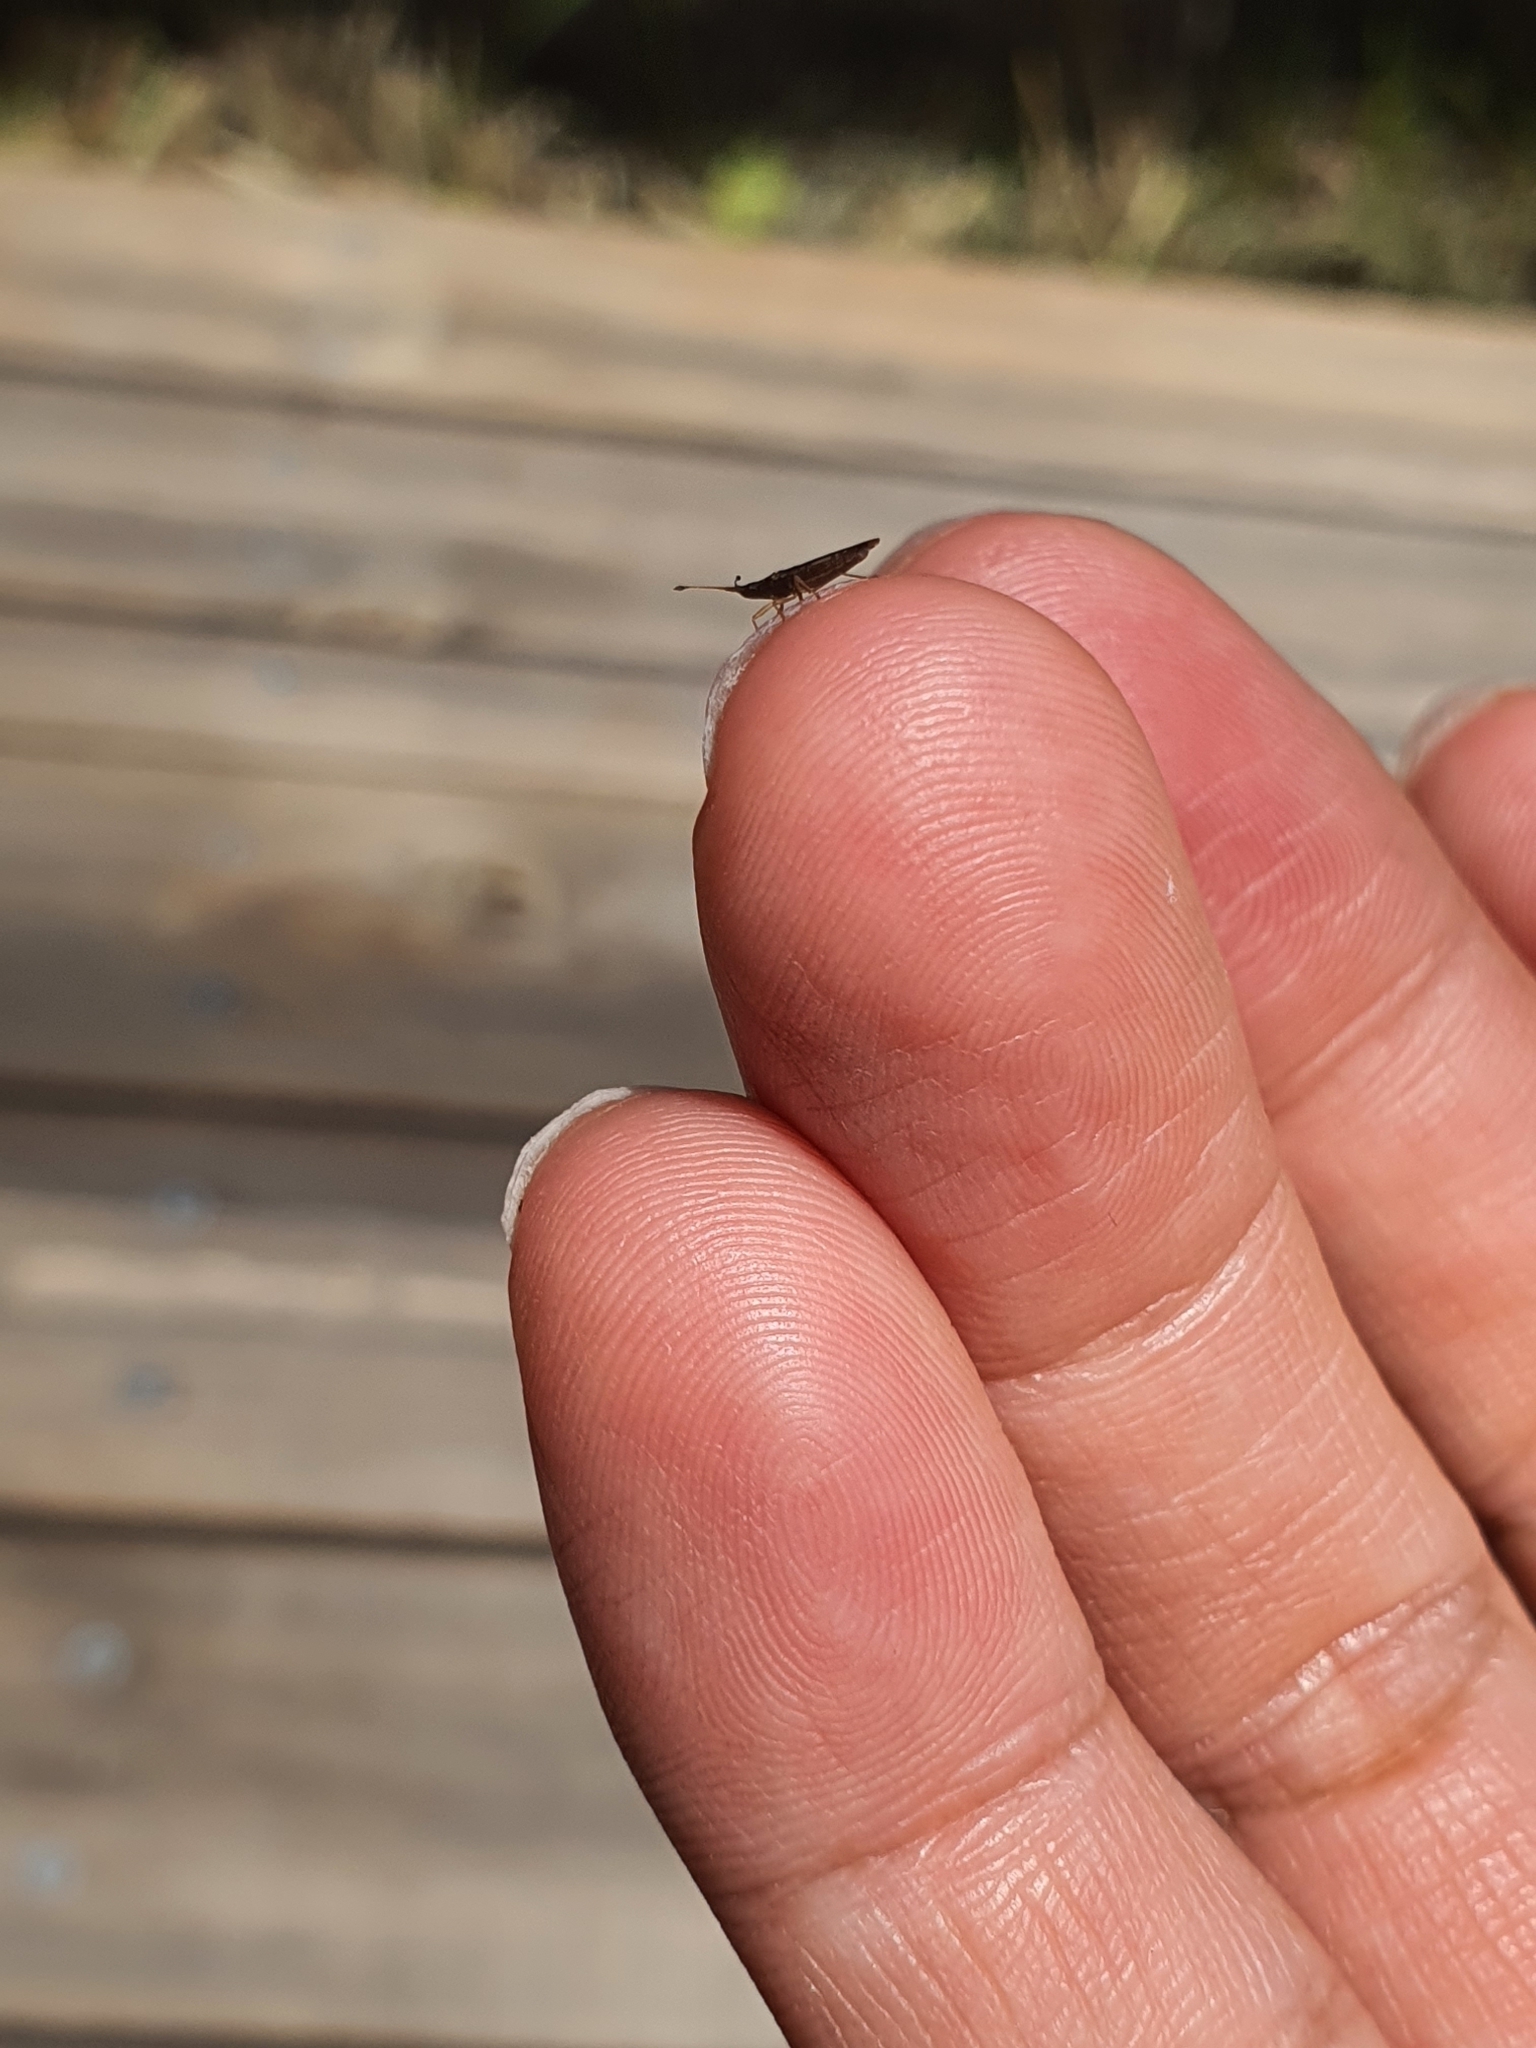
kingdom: Animalia
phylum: Arthropoda
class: Insecta
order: Hemiptera
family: Cryptorhamphidae
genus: Cryptorhamphus
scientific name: Cryptorhamphus orbus
